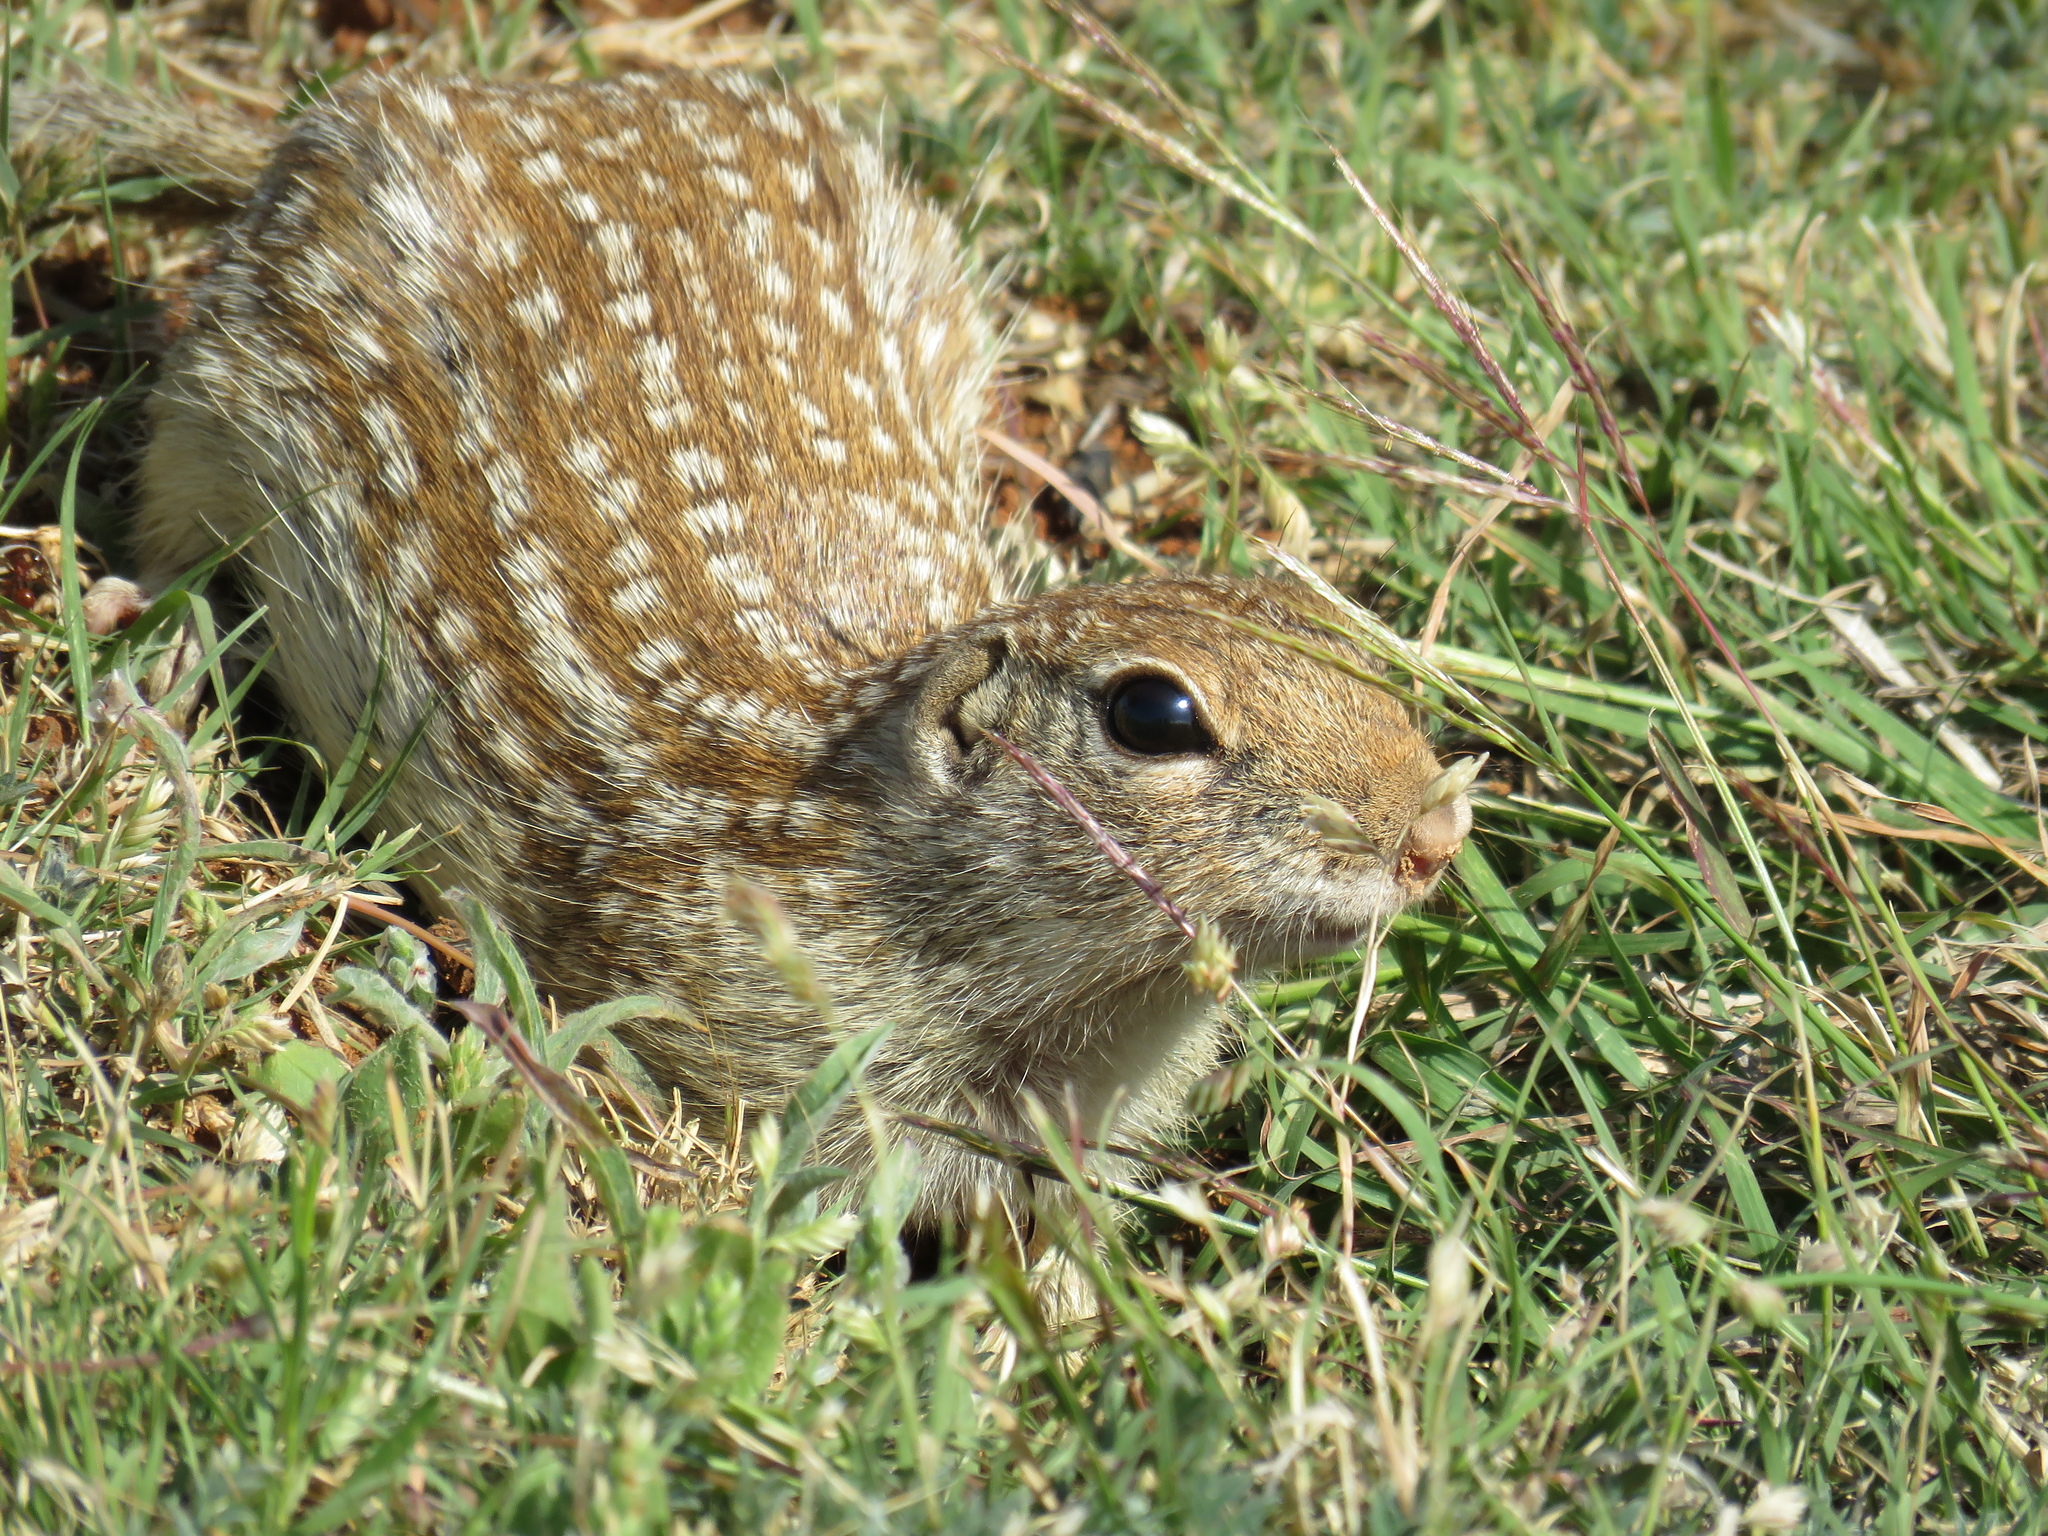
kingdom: Animalia
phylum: Chordata
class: Mammalia
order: Rodentia
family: Sciuridae
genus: Ictidomys
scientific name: Ictidomys parvidens
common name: Rio grande ground squirrel
